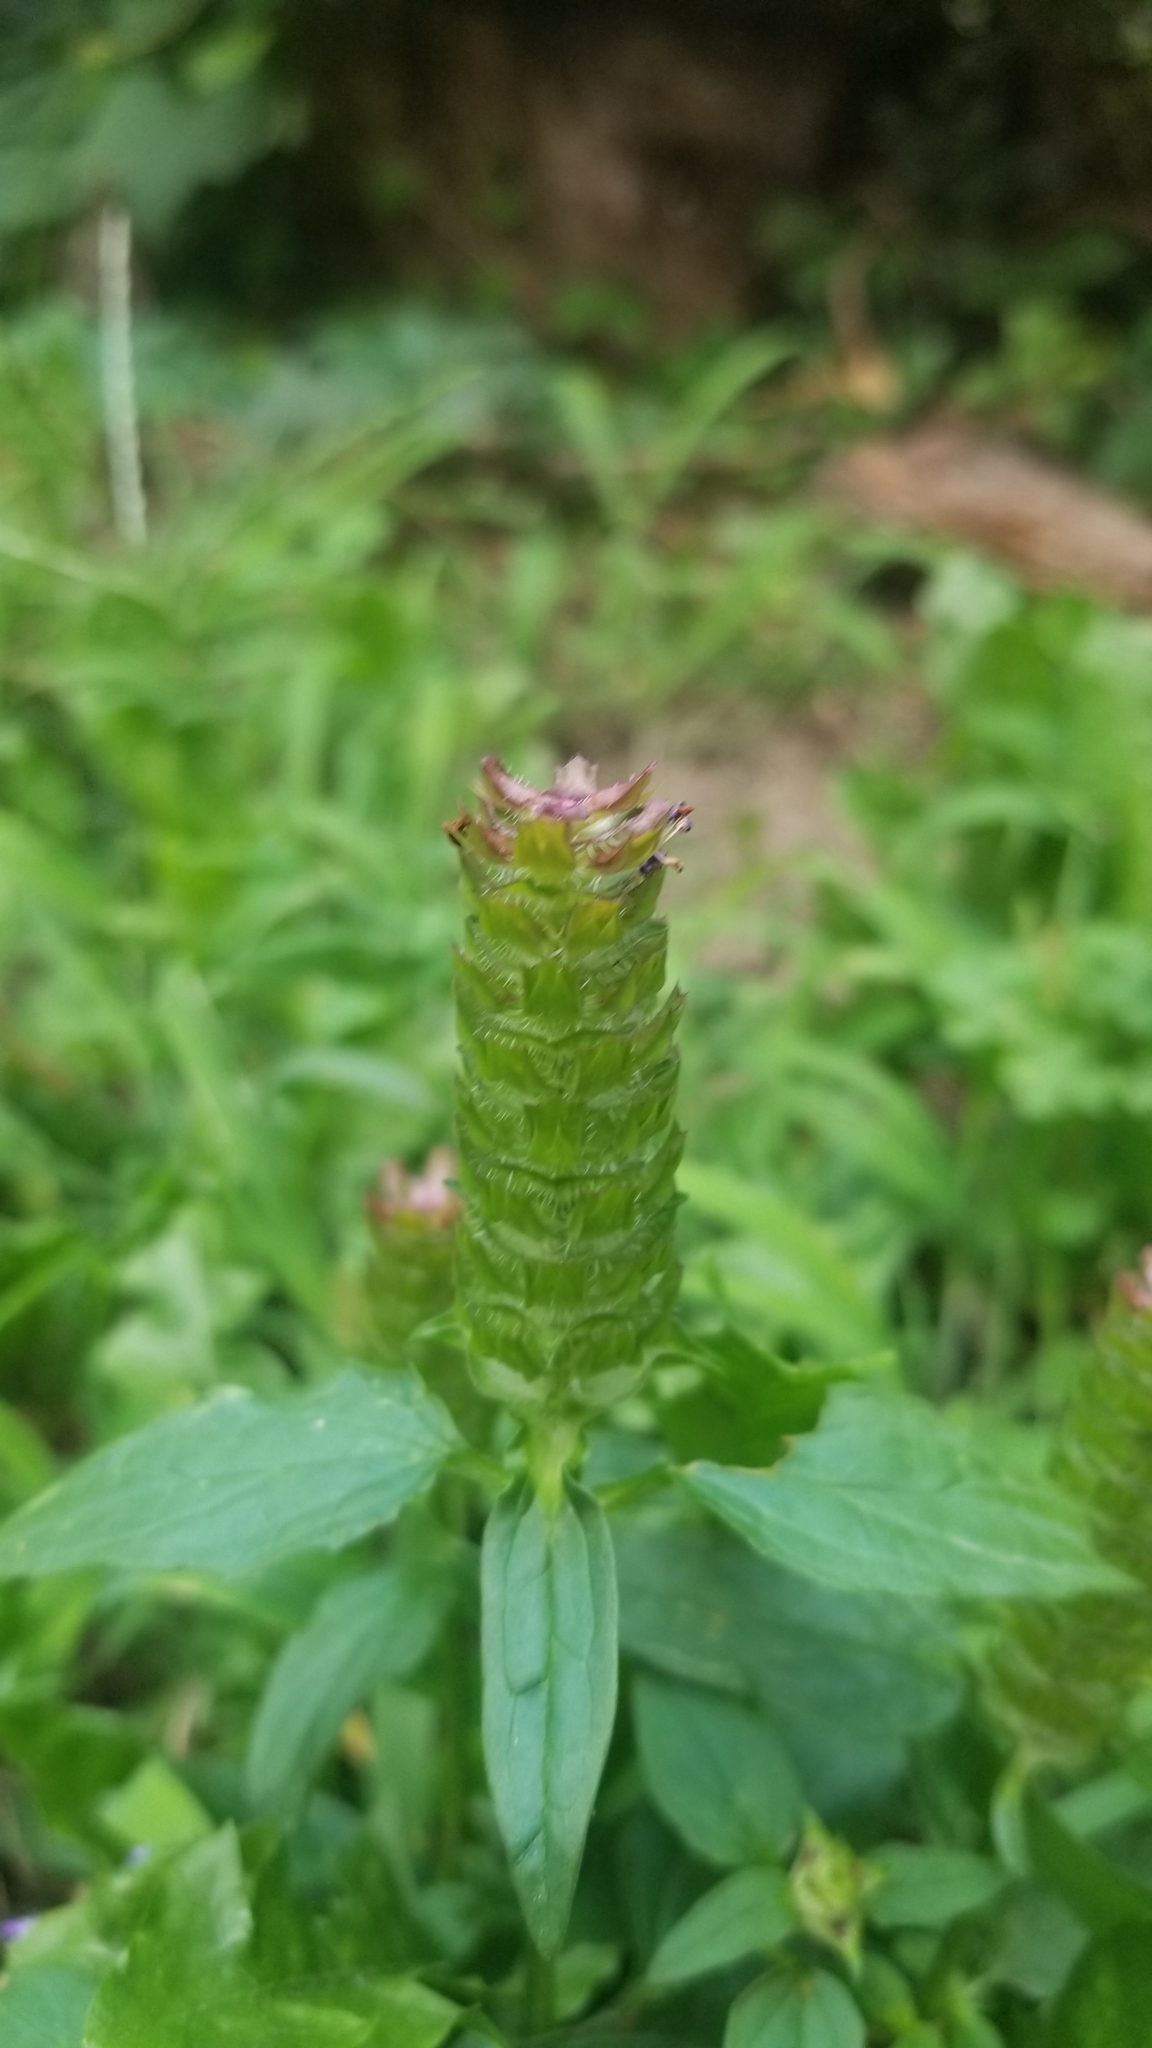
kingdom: Plantae
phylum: Tracheophyta
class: Magnoliopsida
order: Lamiales
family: Lamiaceae
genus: Prunella
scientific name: Prunella vulgaris
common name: Heal-all
